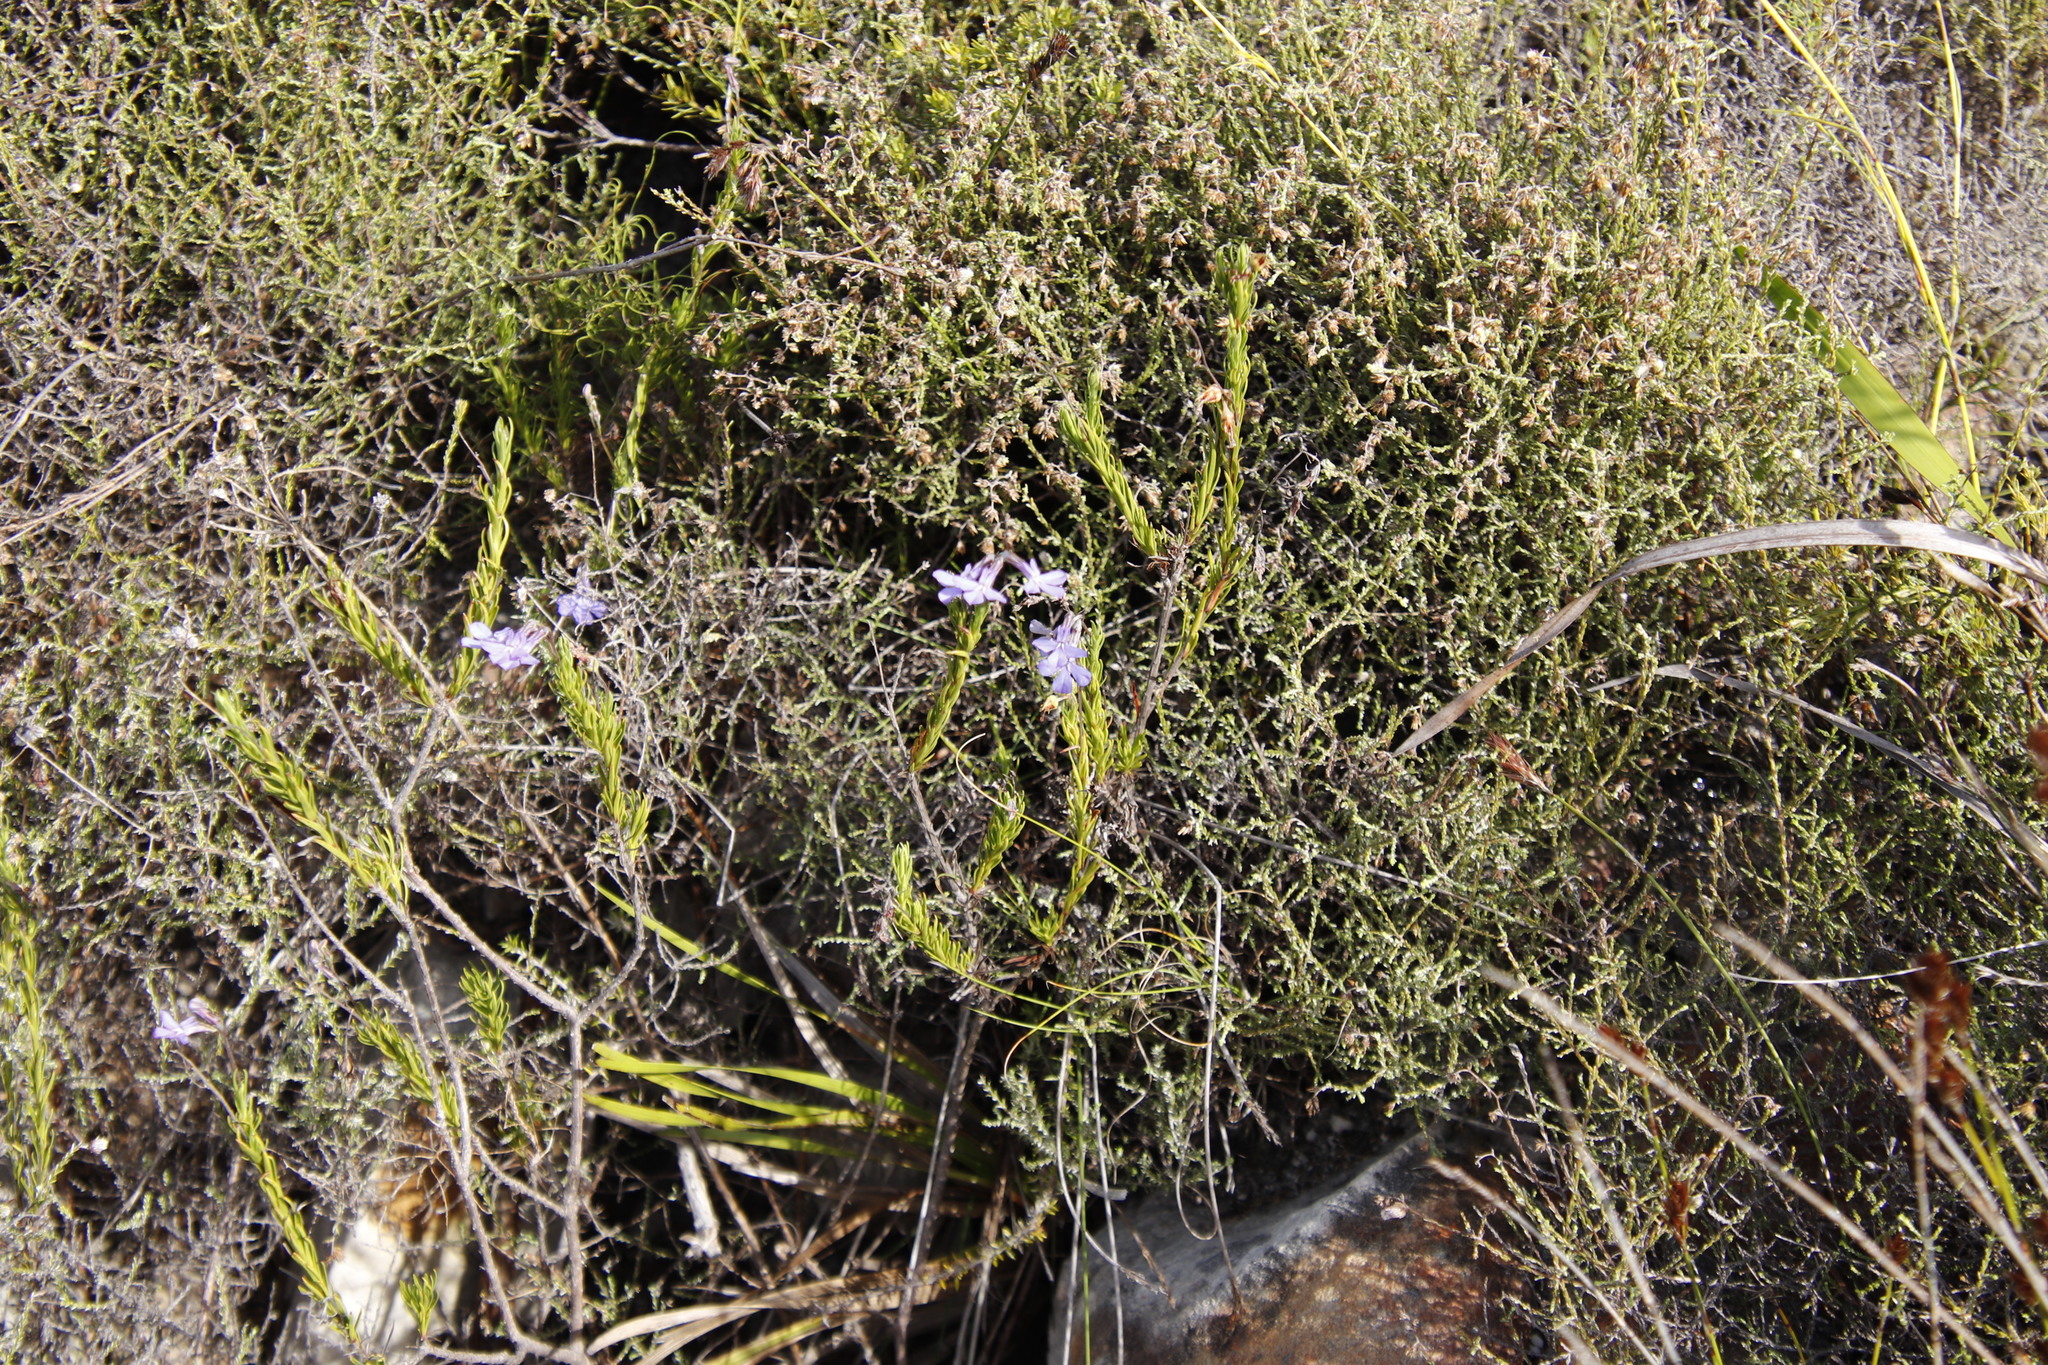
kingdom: Plantae
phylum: Tracheophyta
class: Magnoliopsida
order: Asterales
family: Campanulaceae
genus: Lobelia
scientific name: Lobelia pinifolia
